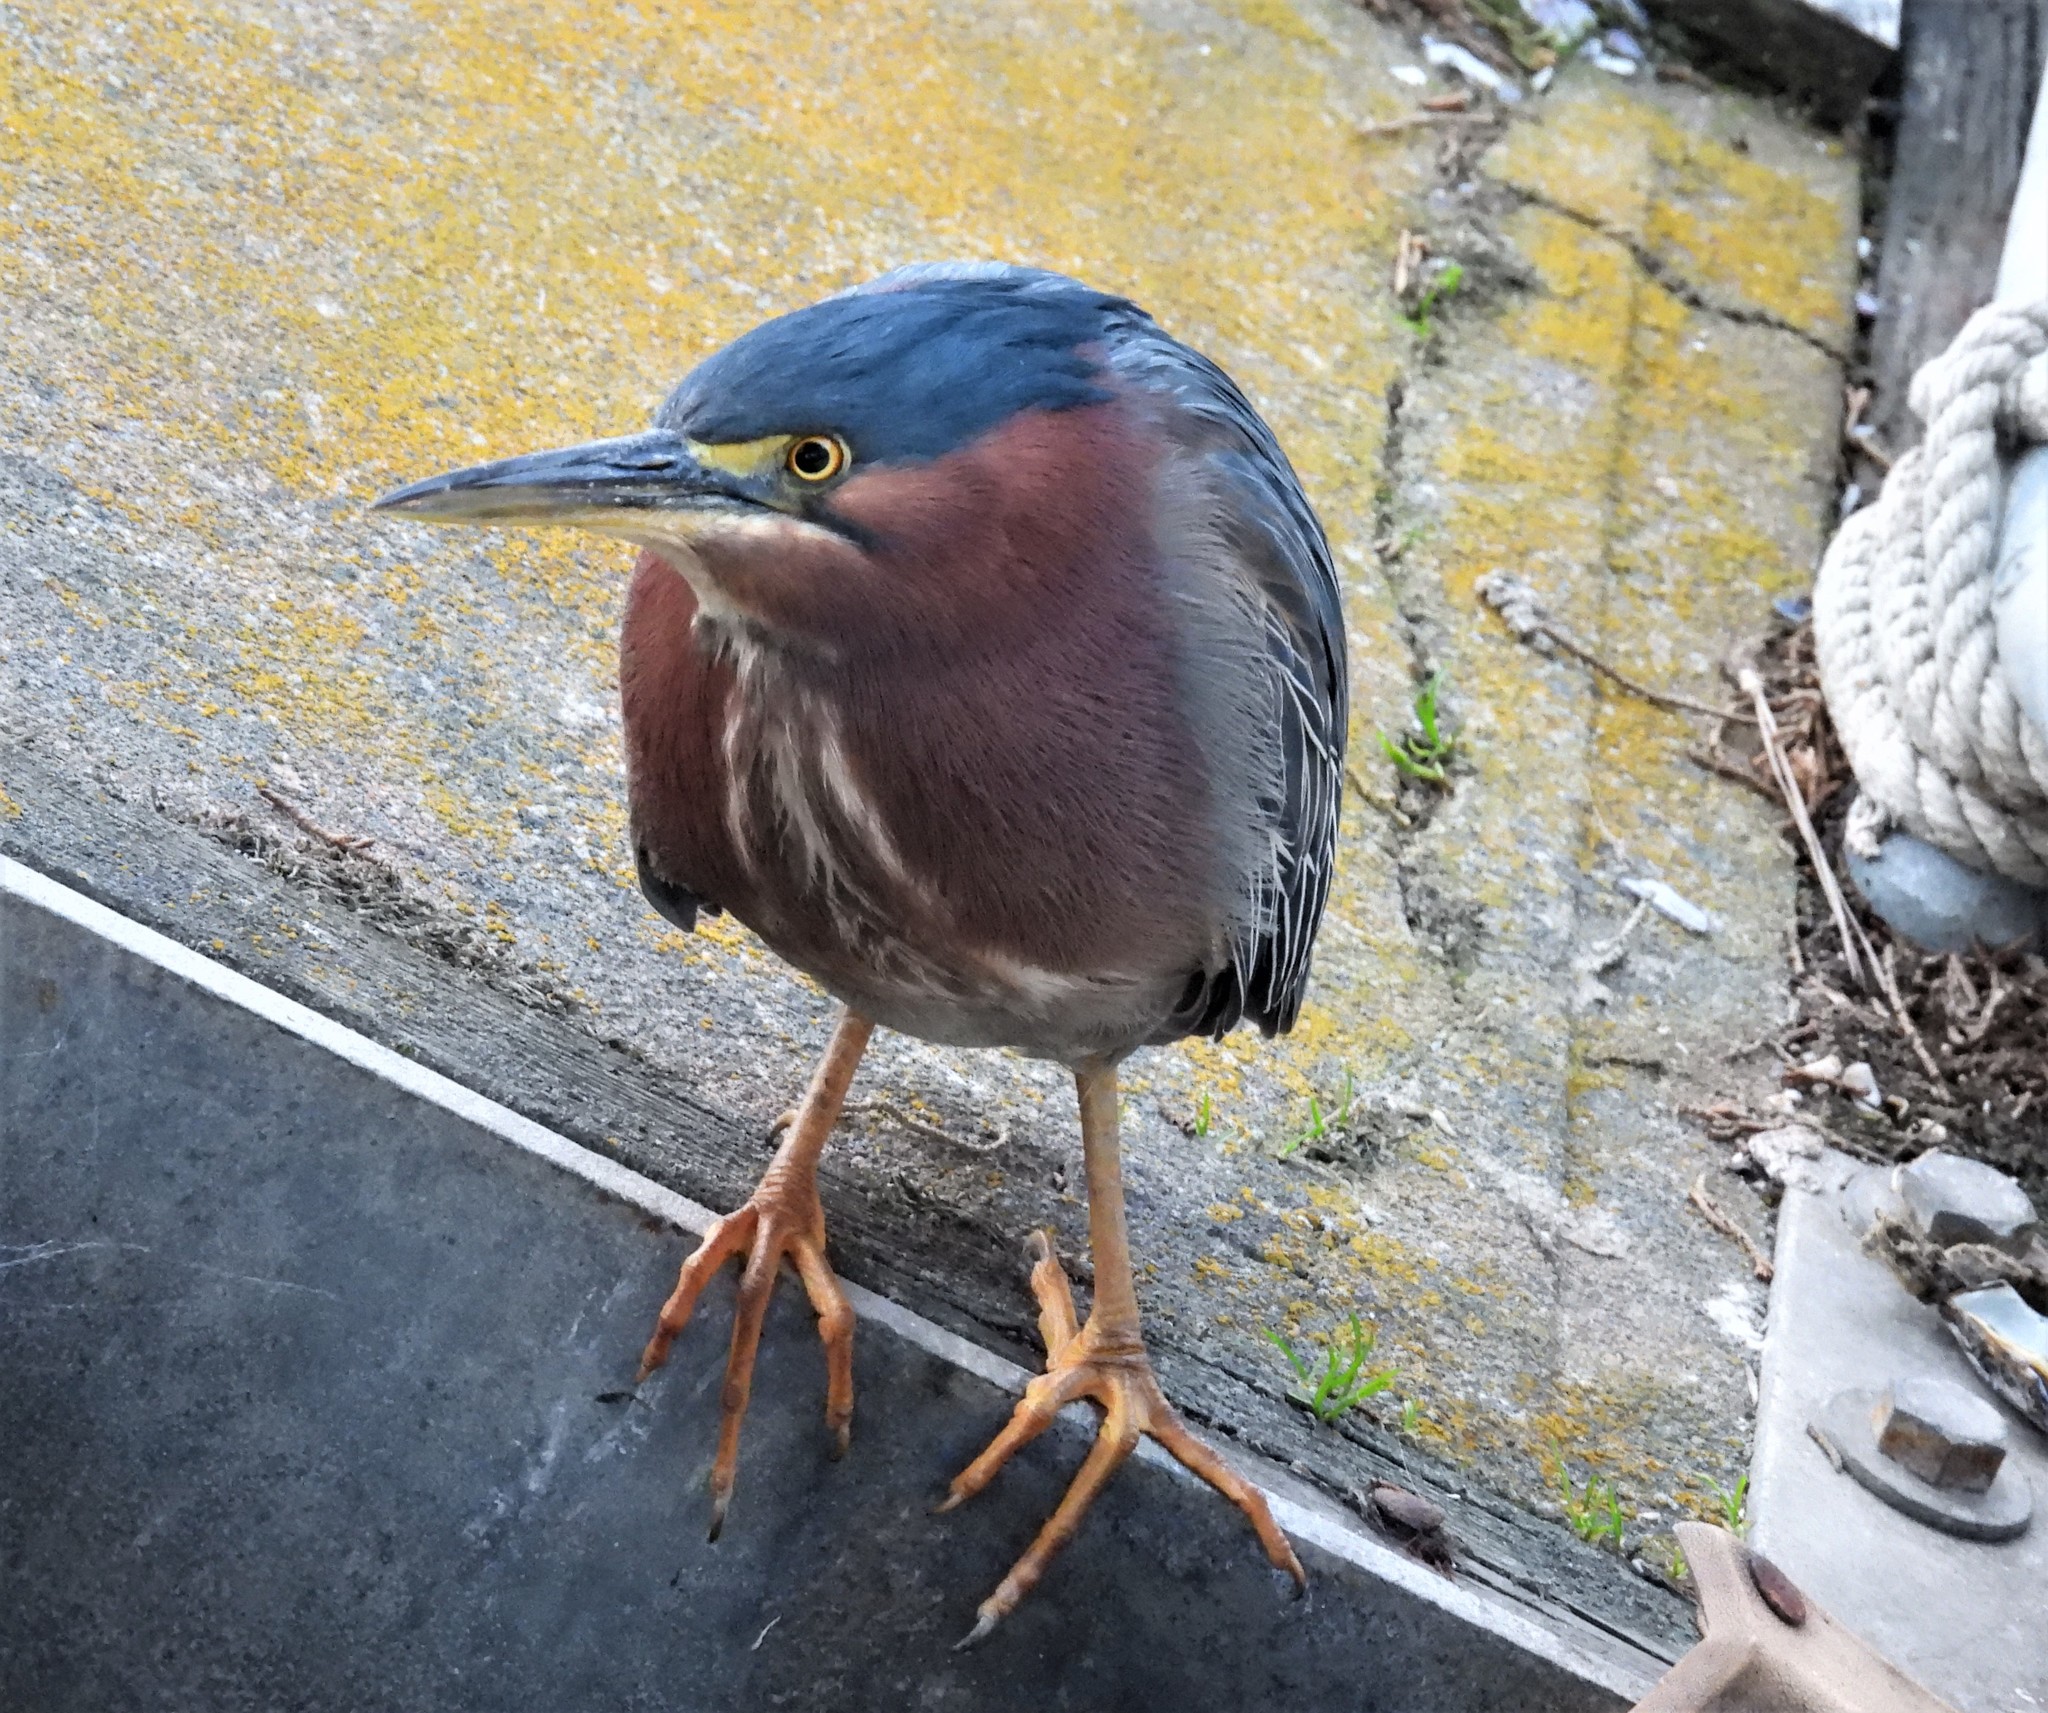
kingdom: Animalia
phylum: Chordata
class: Aves
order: Pelecaniformes
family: Ardeidae
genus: Butorides
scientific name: Butorides virescens
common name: Green heron
